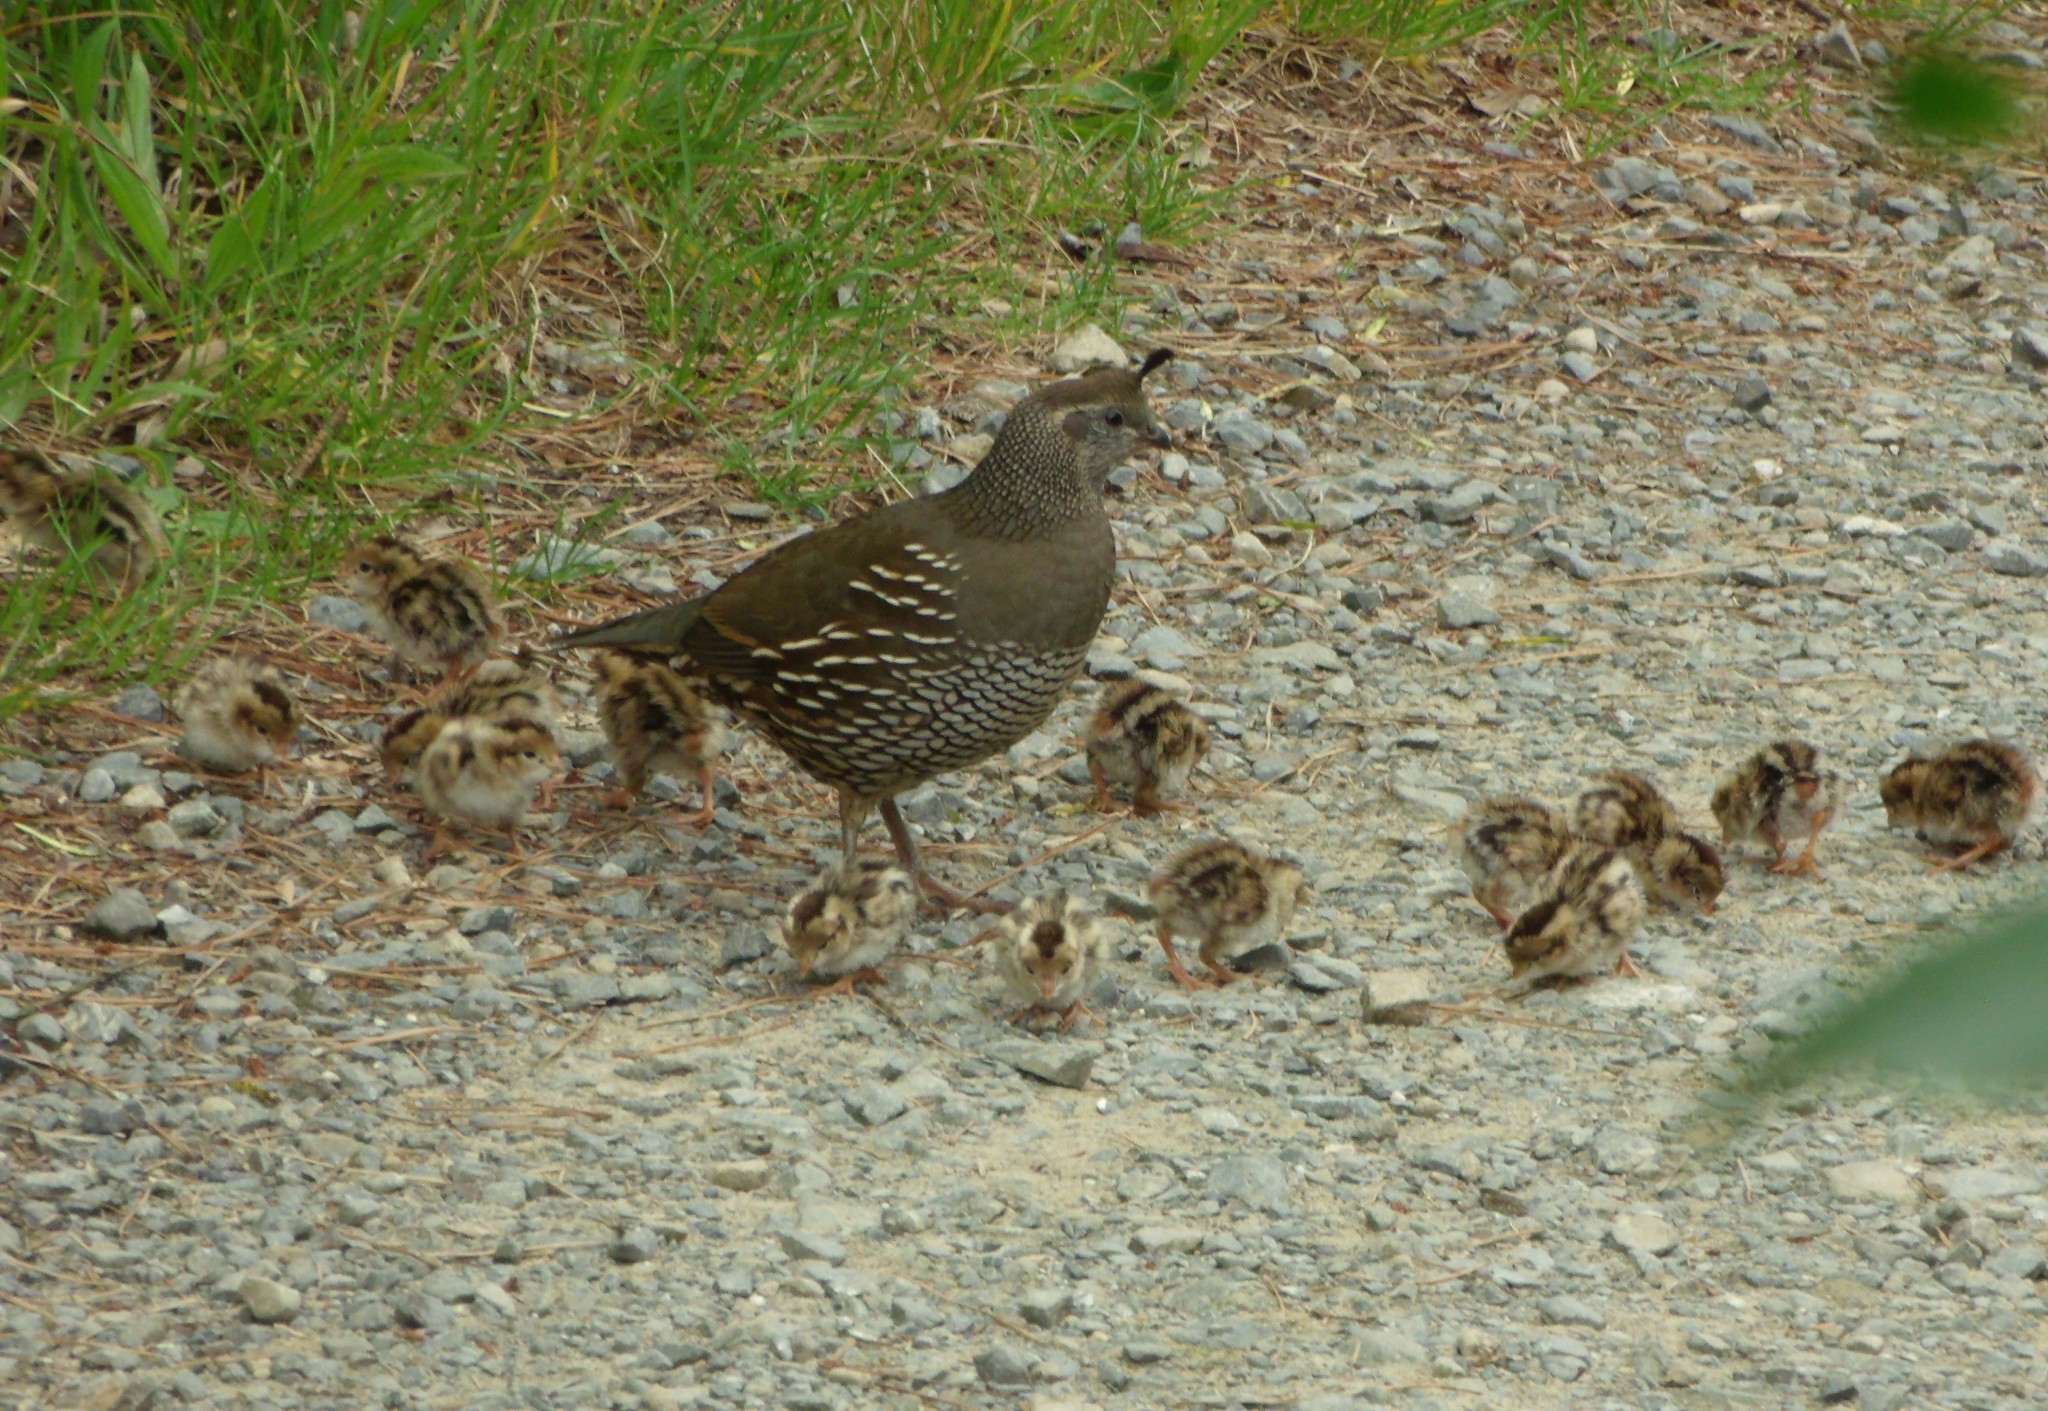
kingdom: Animalia
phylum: Chordata
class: Aves
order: Galliformes
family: Odontophoridae
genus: Callipepla
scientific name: Callipepla californica
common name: California quail
